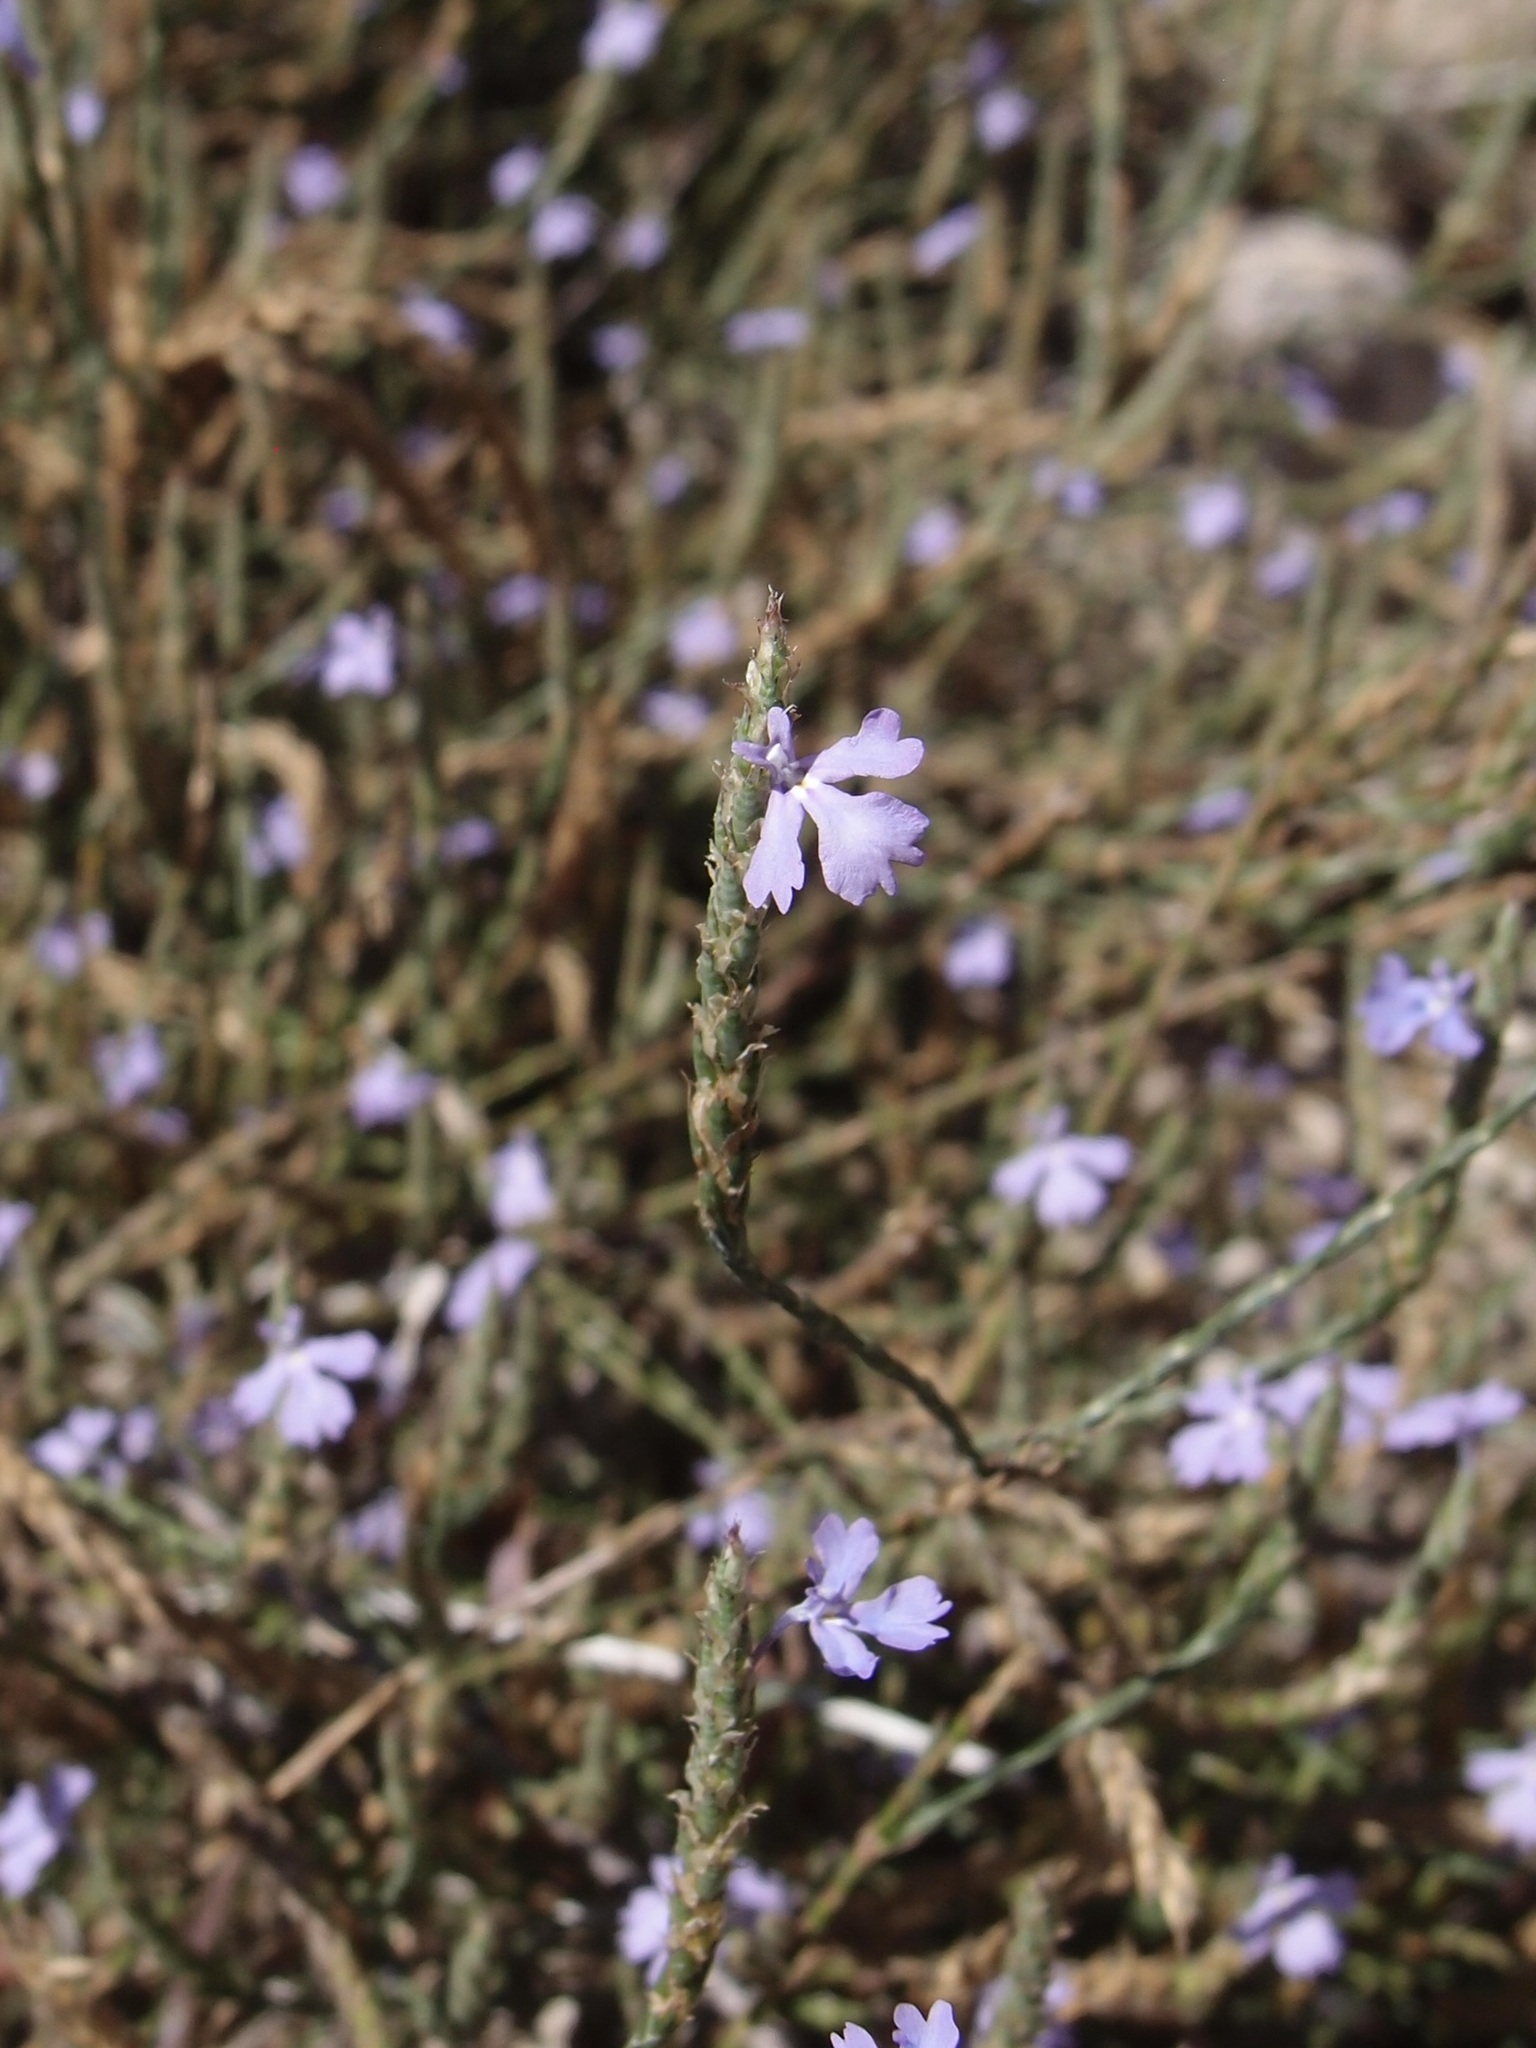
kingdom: Plantae
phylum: Tracheophyta
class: Magnoliopsida
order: Lamiales
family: Acanthaceae
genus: Elytraria
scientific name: Elytraria imbricata
